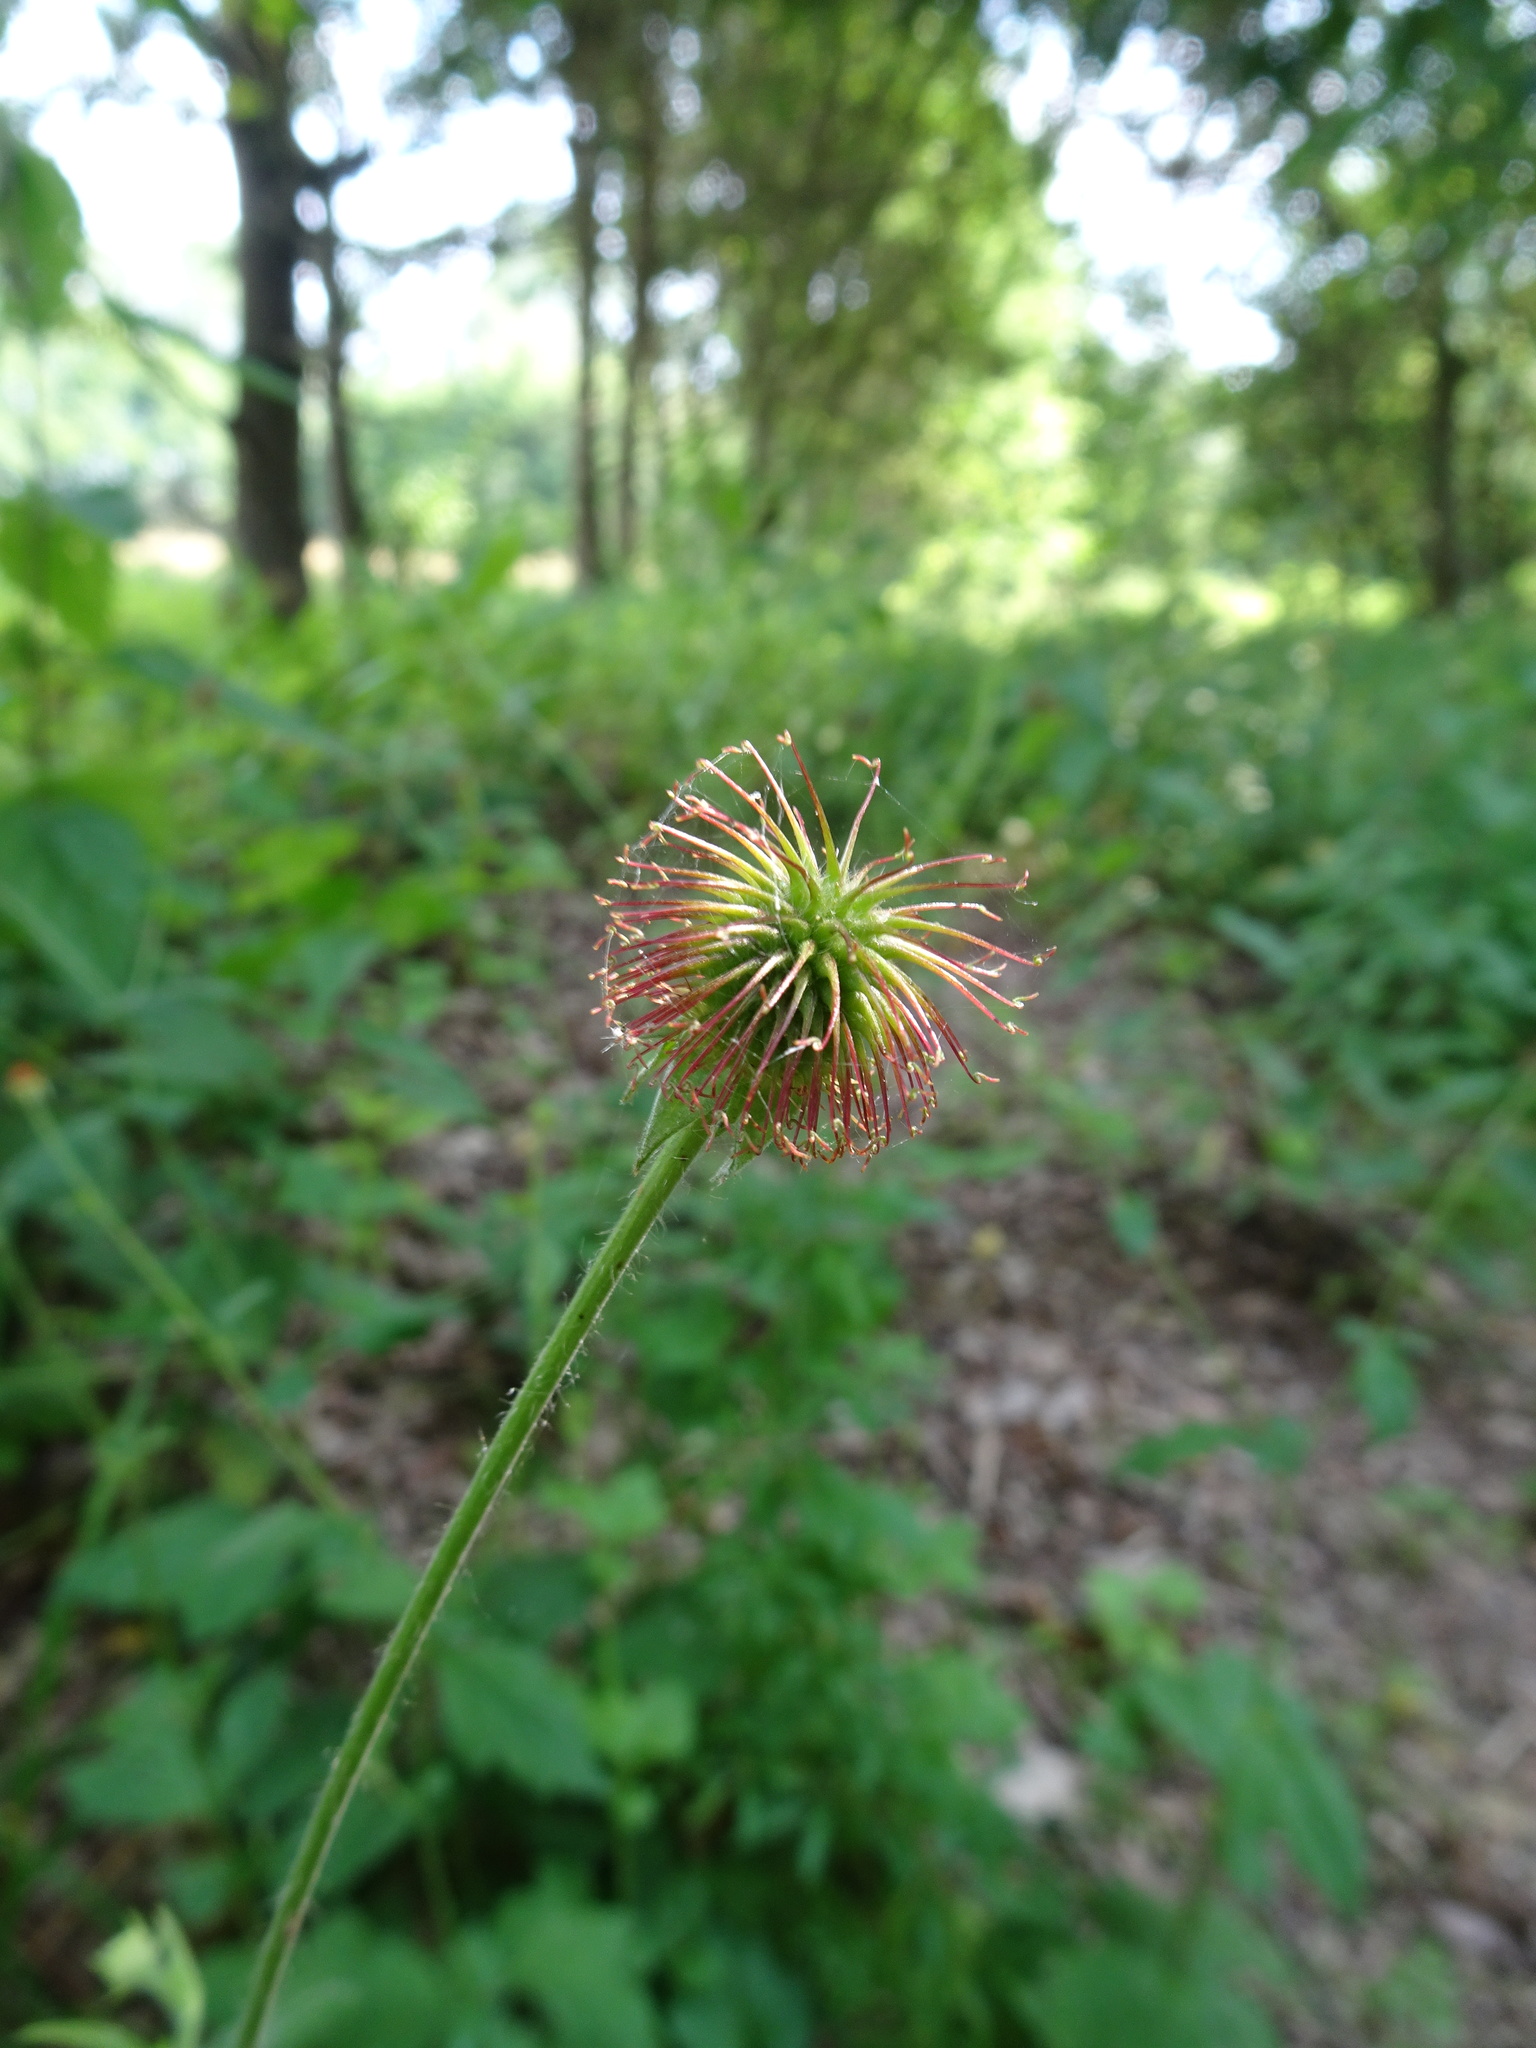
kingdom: Plantae
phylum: Tracheophyta
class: Magnoliopsida
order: Rosales
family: Rosaceae
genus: Geum
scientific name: Geum urbanum
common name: Wood avens
